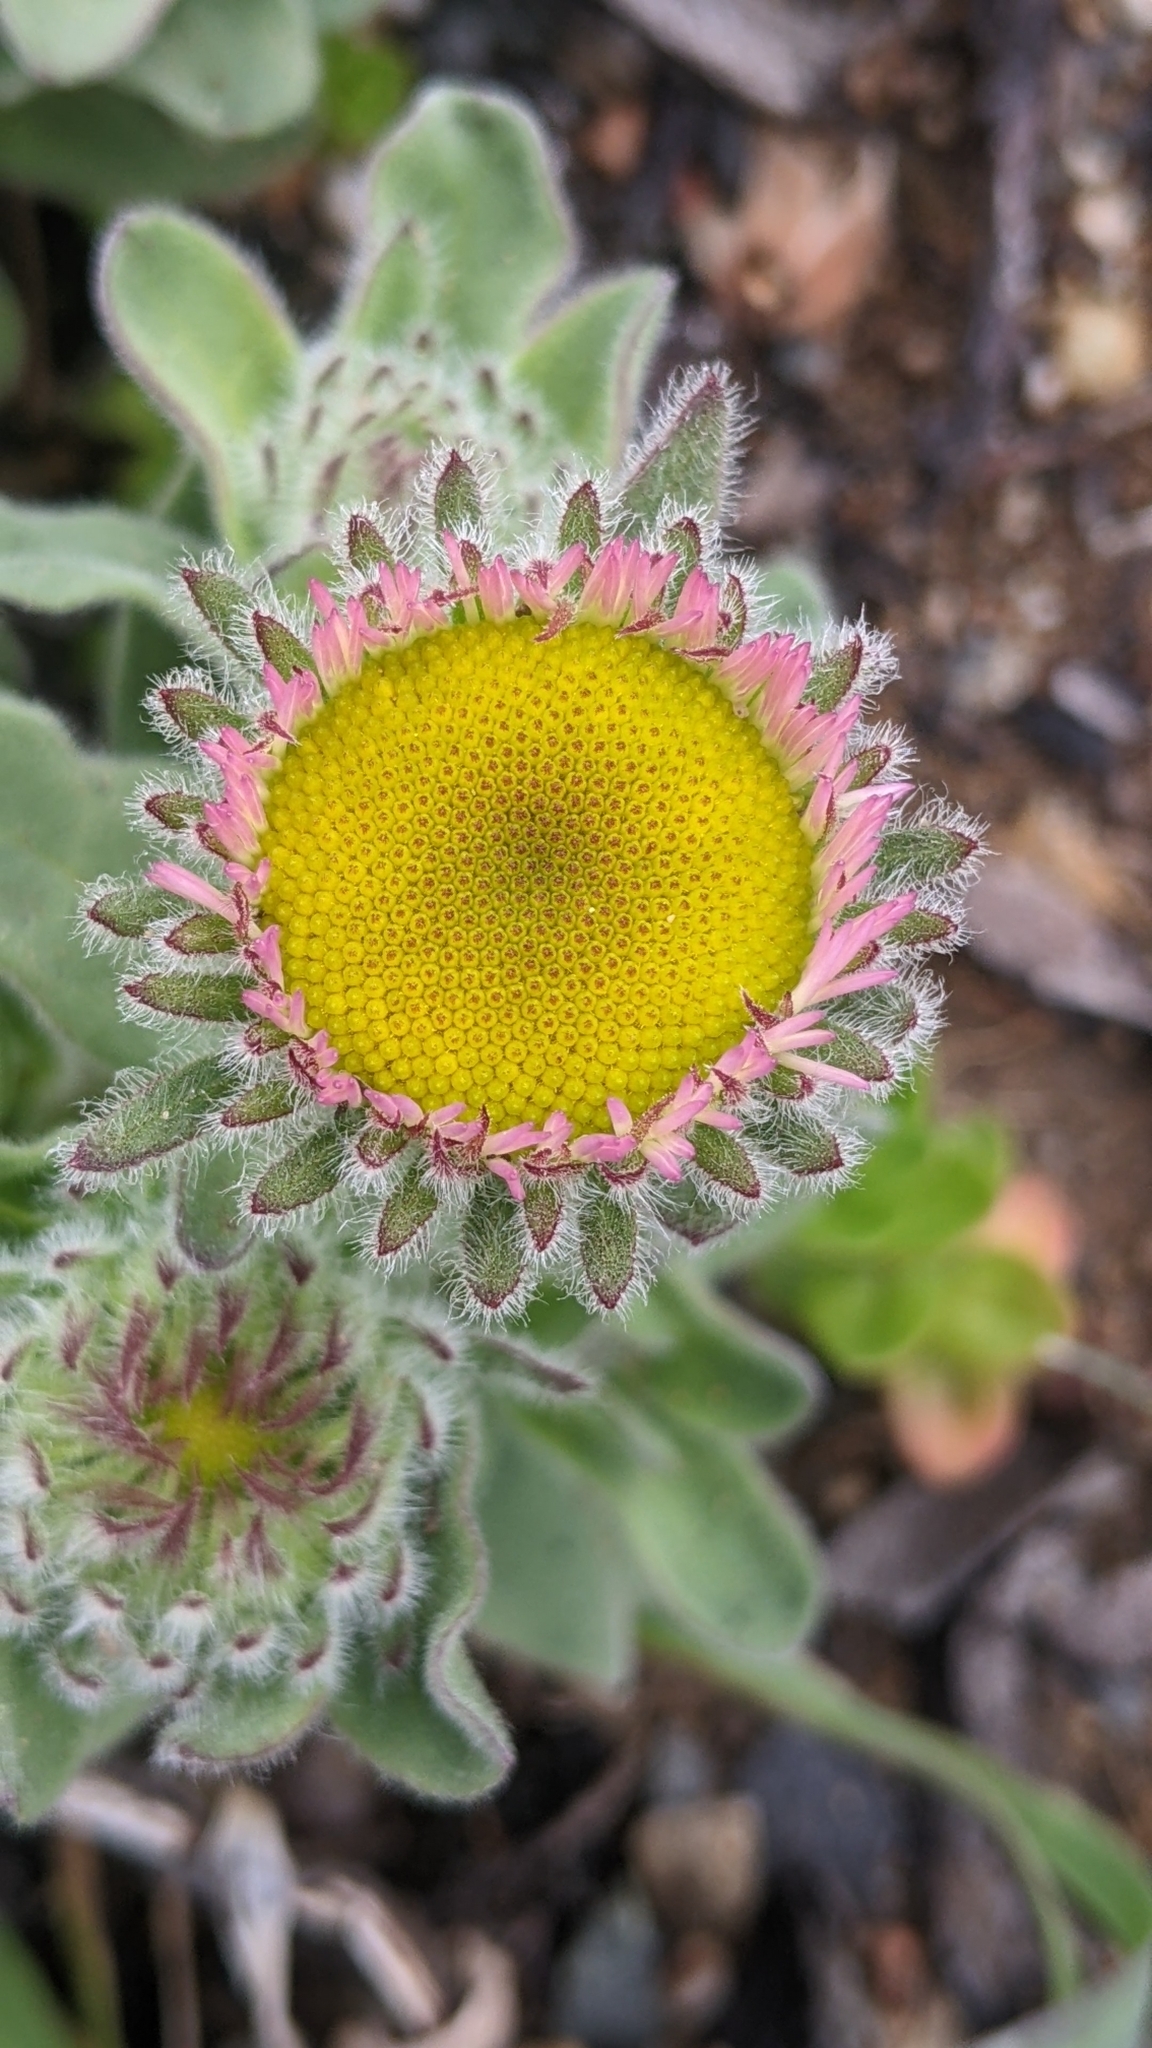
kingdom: Plantae
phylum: Tracheophyta
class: Magnoliopsida
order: Asterales
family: Asteraceae
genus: Erigeron
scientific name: Erigeron glaucus
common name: Seaside daisy
